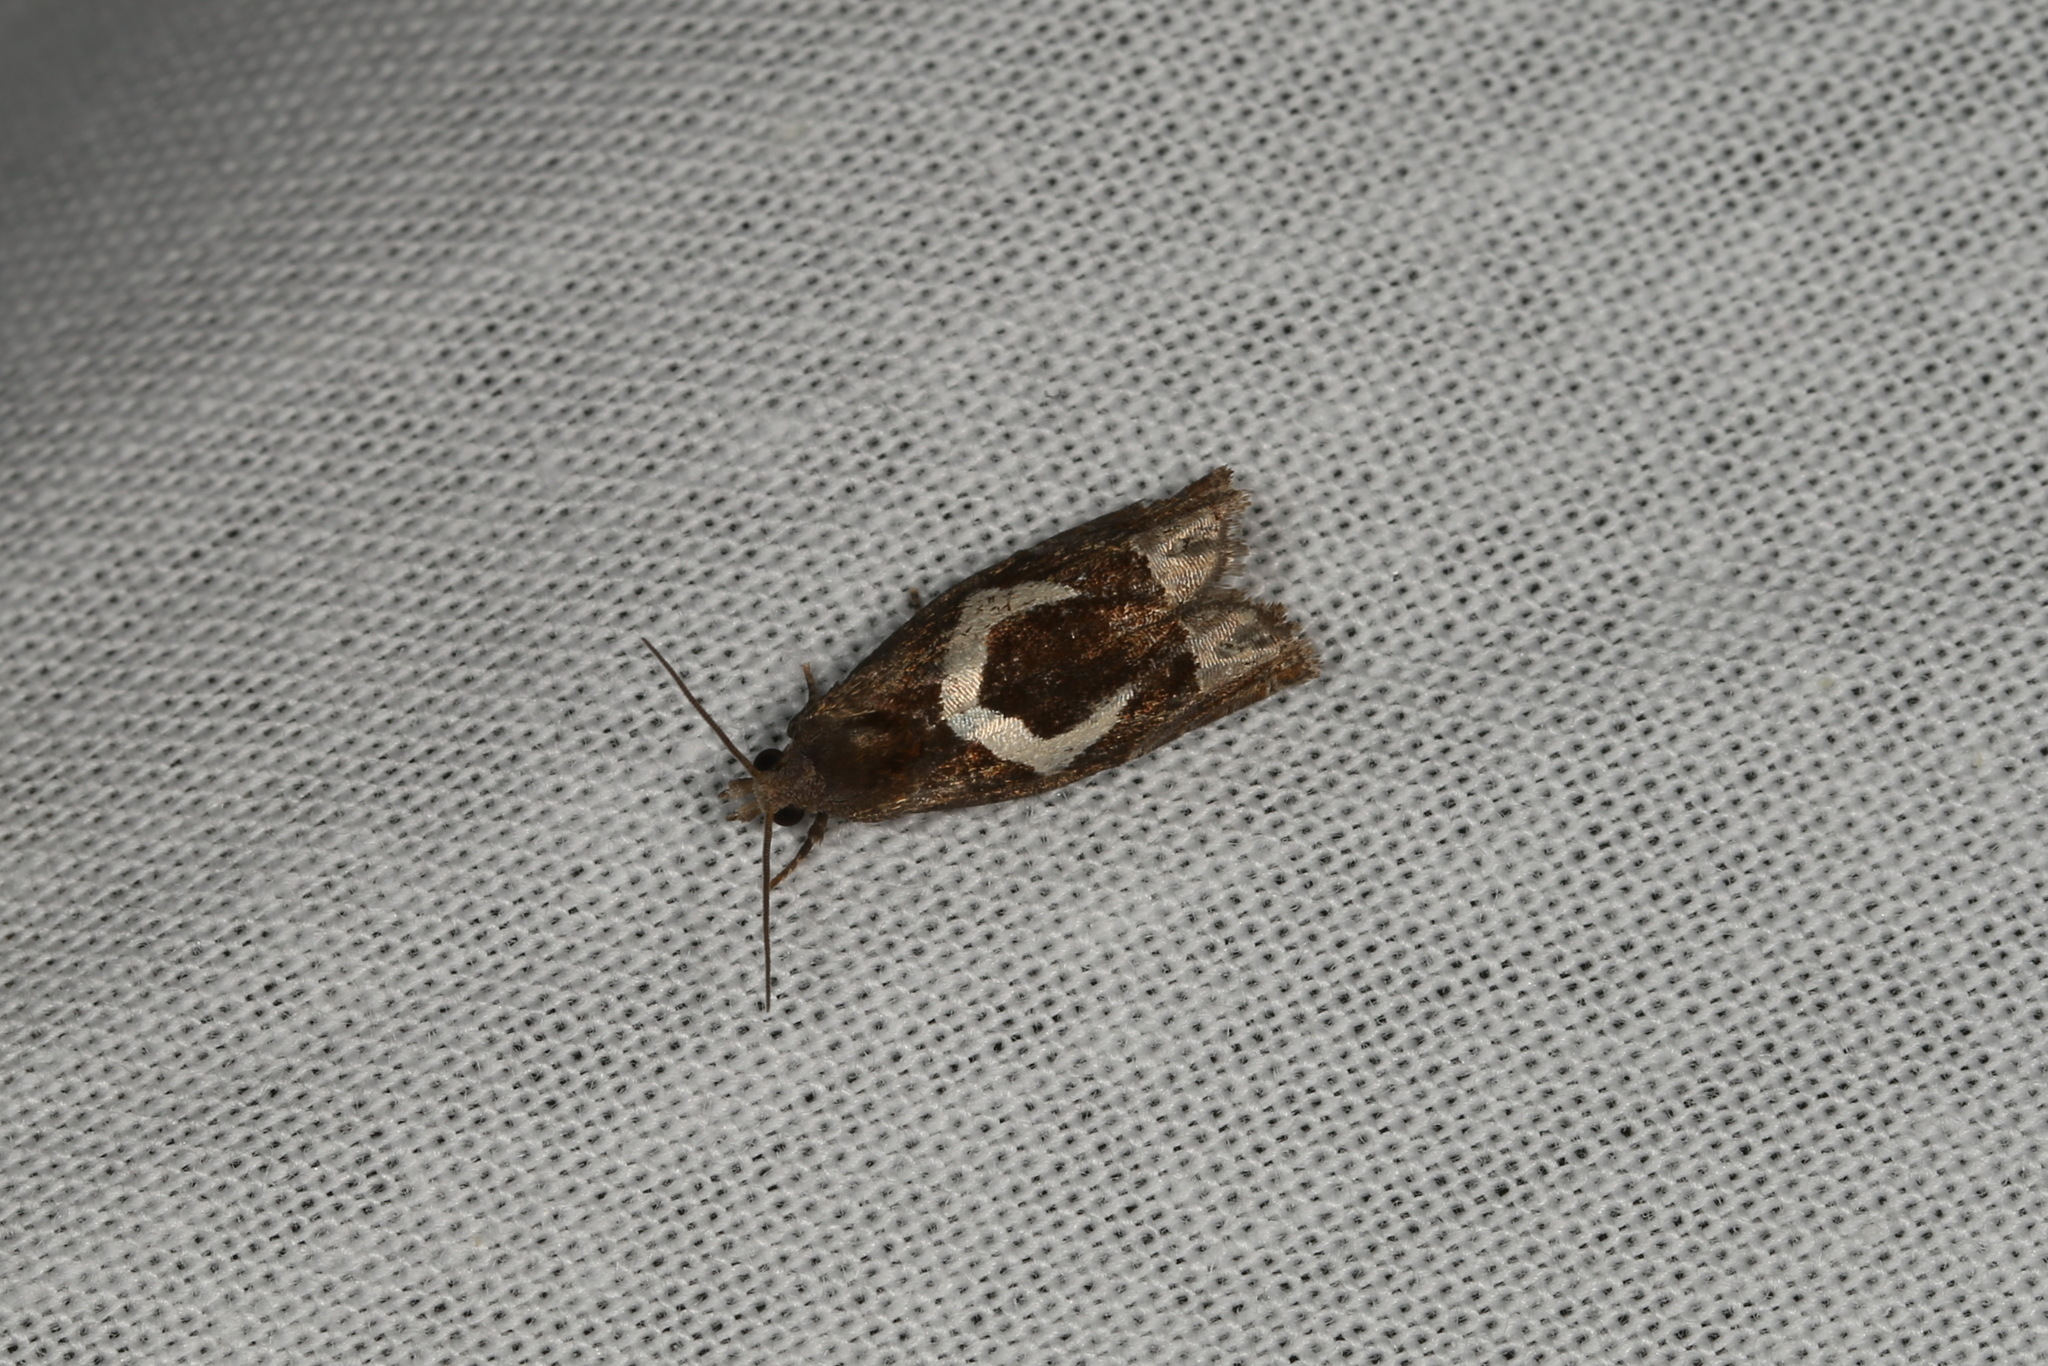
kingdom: Animalia
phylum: Arthropoda
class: Insecta
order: Lepidoptera
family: Tortricidae
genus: Epiblema
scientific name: Epiblema foenella
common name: White-foot bell
